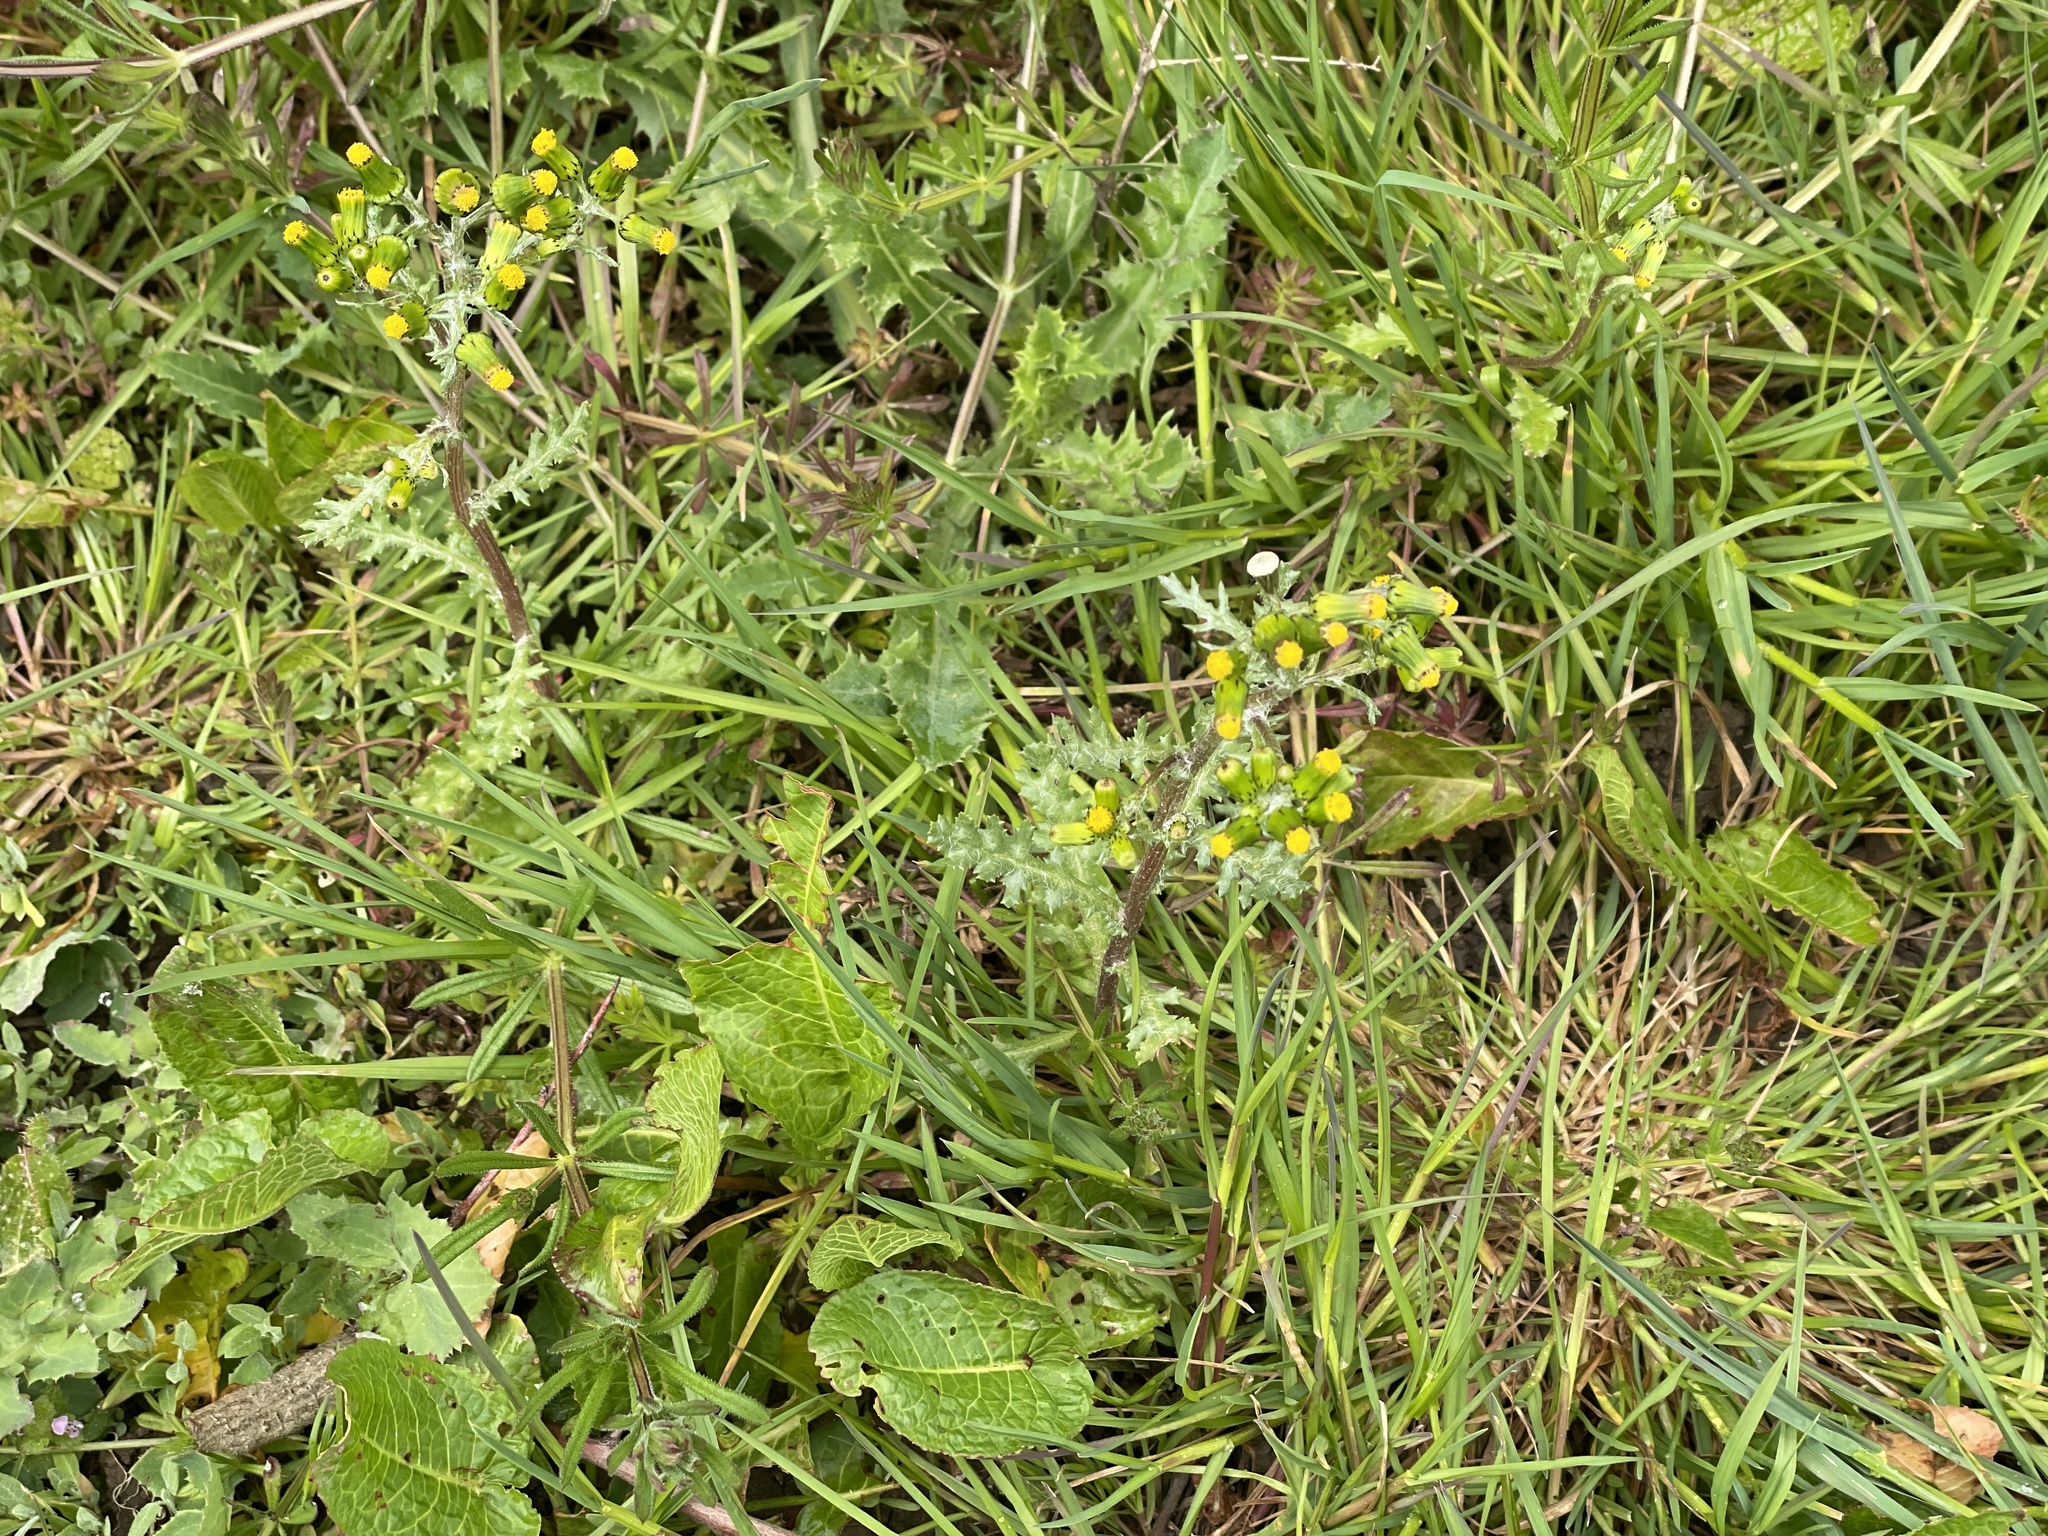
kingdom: Plantae
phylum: Tracheophyta
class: Magnoliopsida
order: Asterales
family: Asteraceae
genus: Senecio
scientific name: Senecio vulgaris
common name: Old-man-in-the-spring
